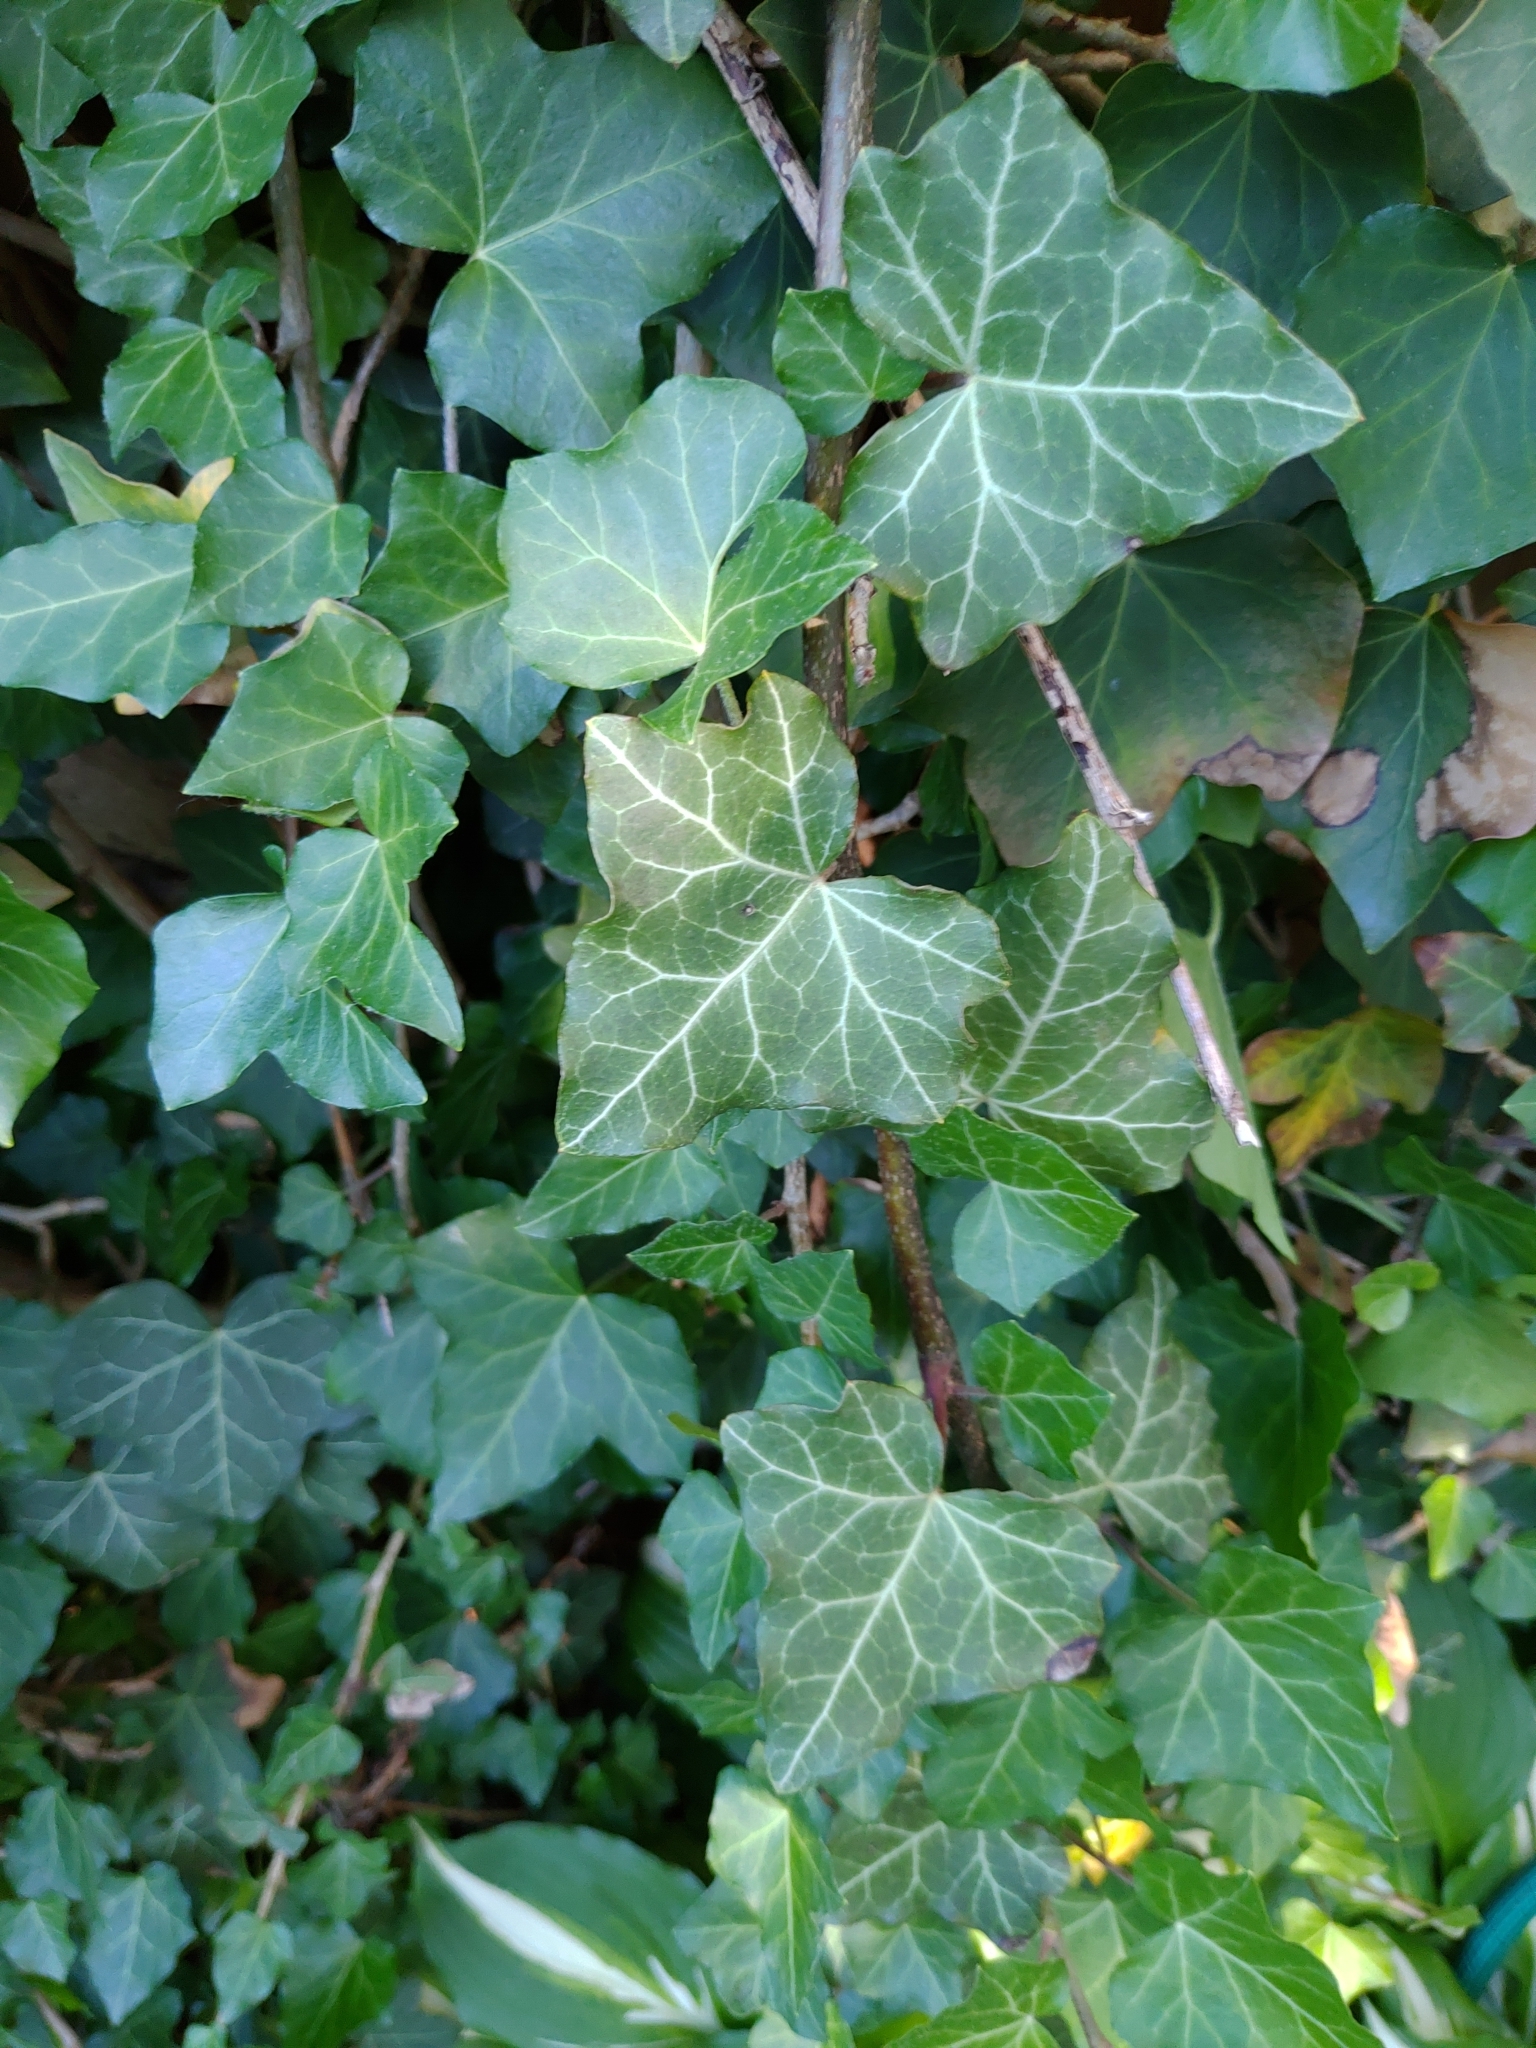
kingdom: Plantae
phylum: Tracheophyta
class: Magnoliopsida
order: Apiales
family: Araliaceae
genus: Hedera
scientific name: Hedera helix
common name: Ivy
